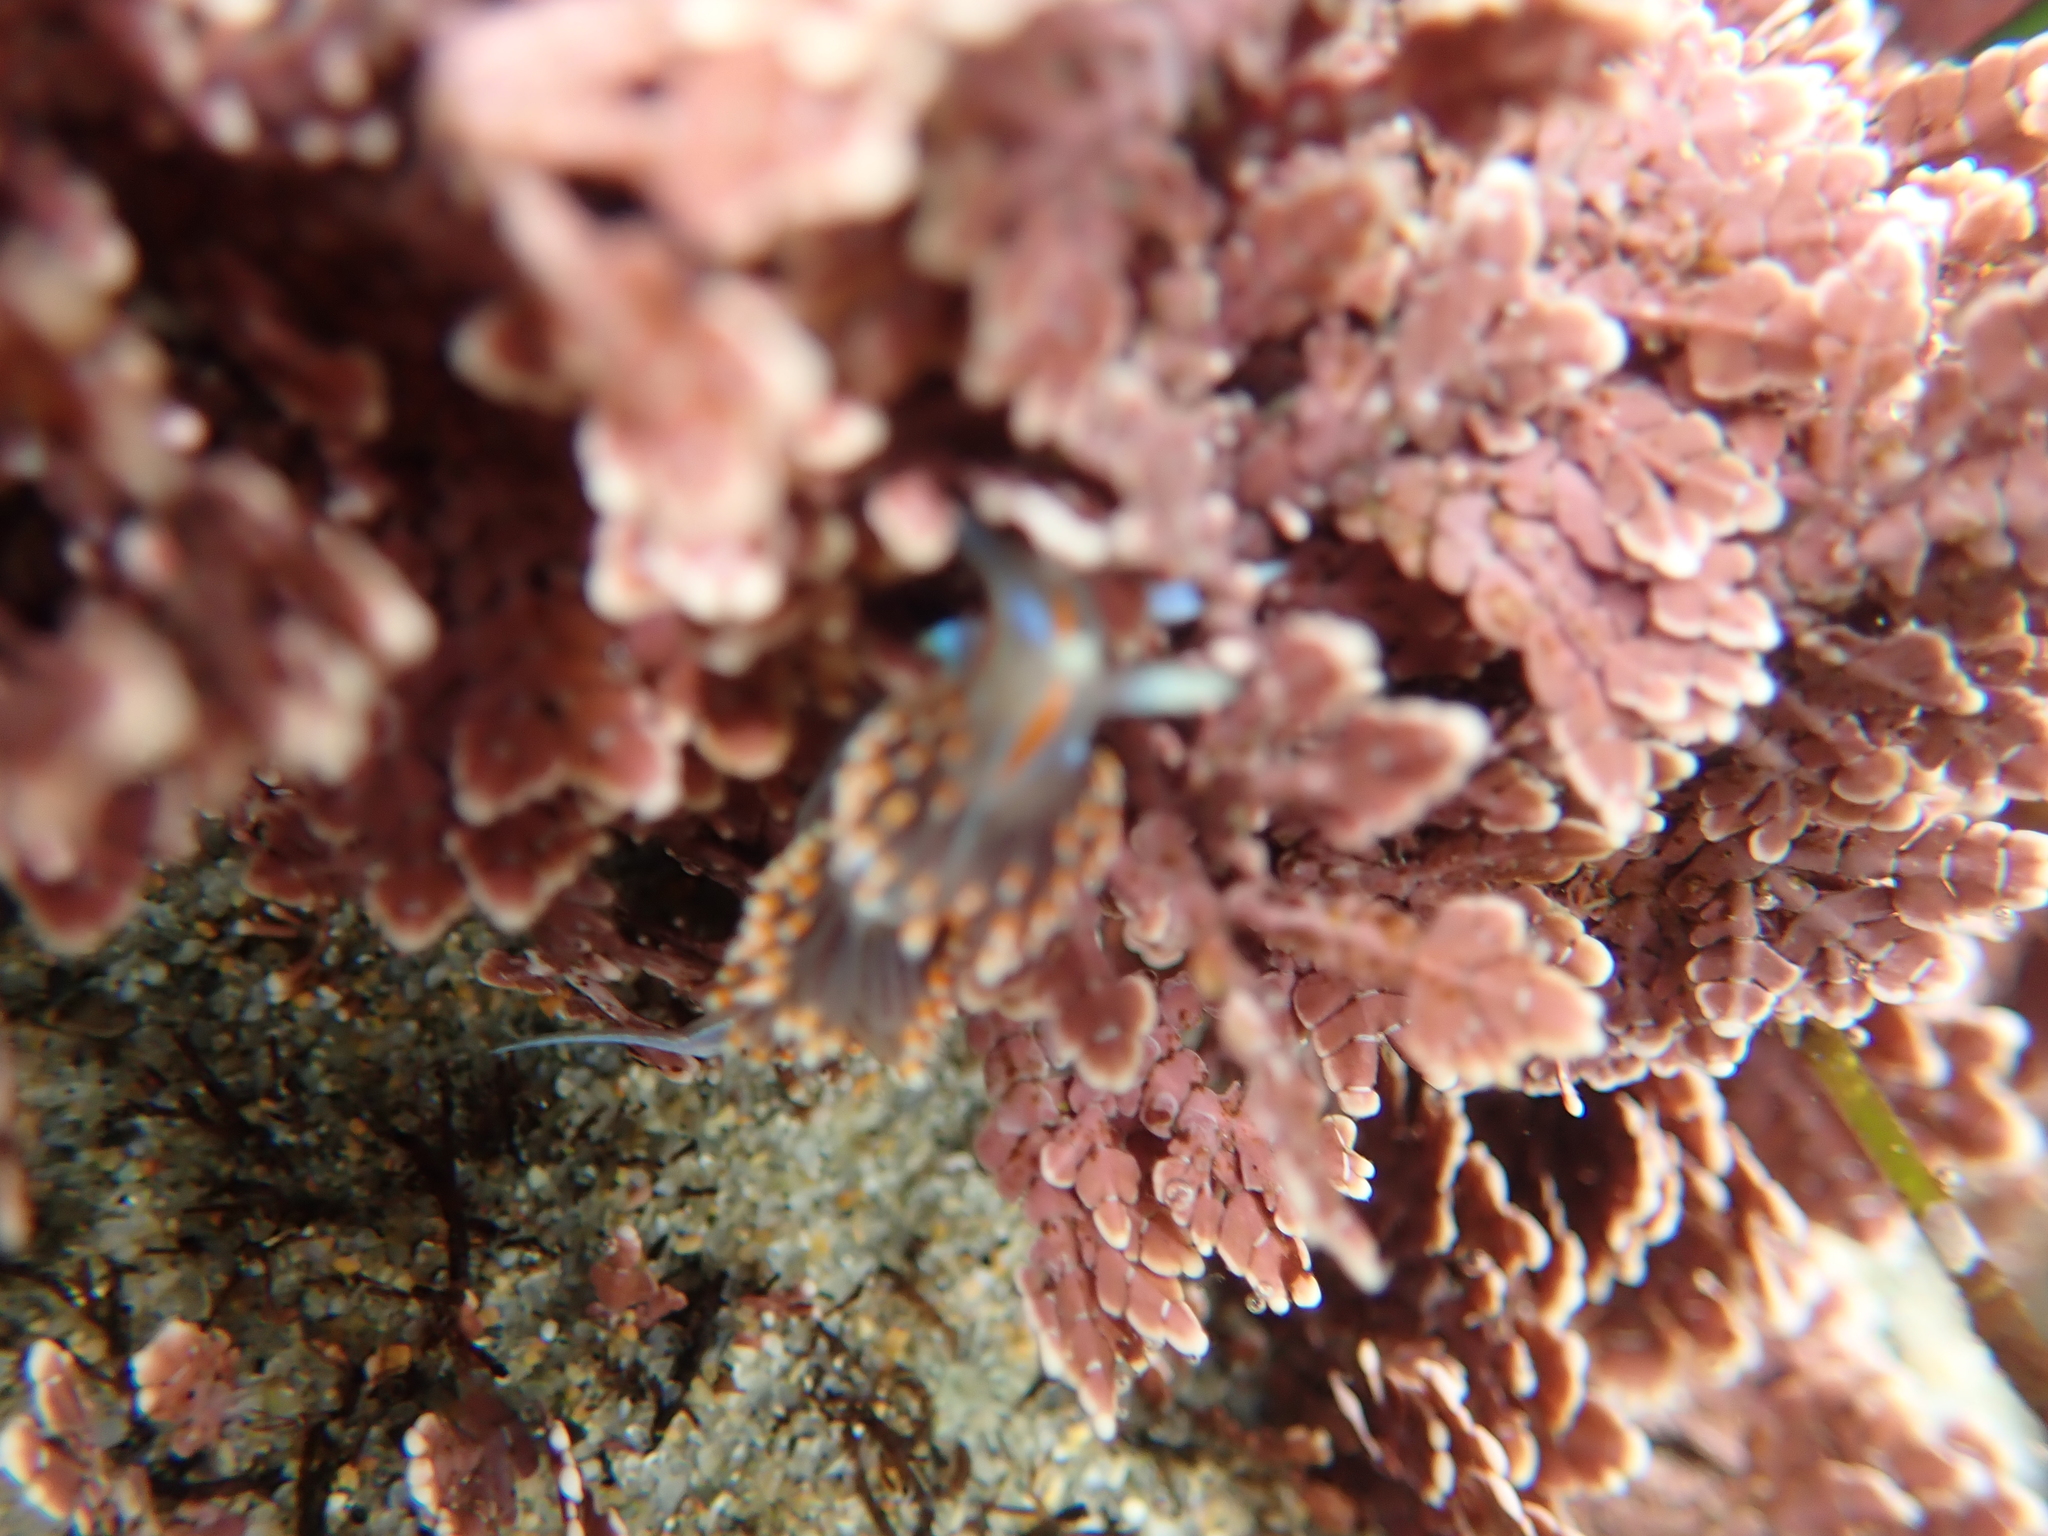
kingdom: Animalia
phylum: Mollusca
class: Gastropoda
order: Nudibranchia
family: Myrrhinidae
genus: Hermissenda
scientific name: Hermissenda opalescens
